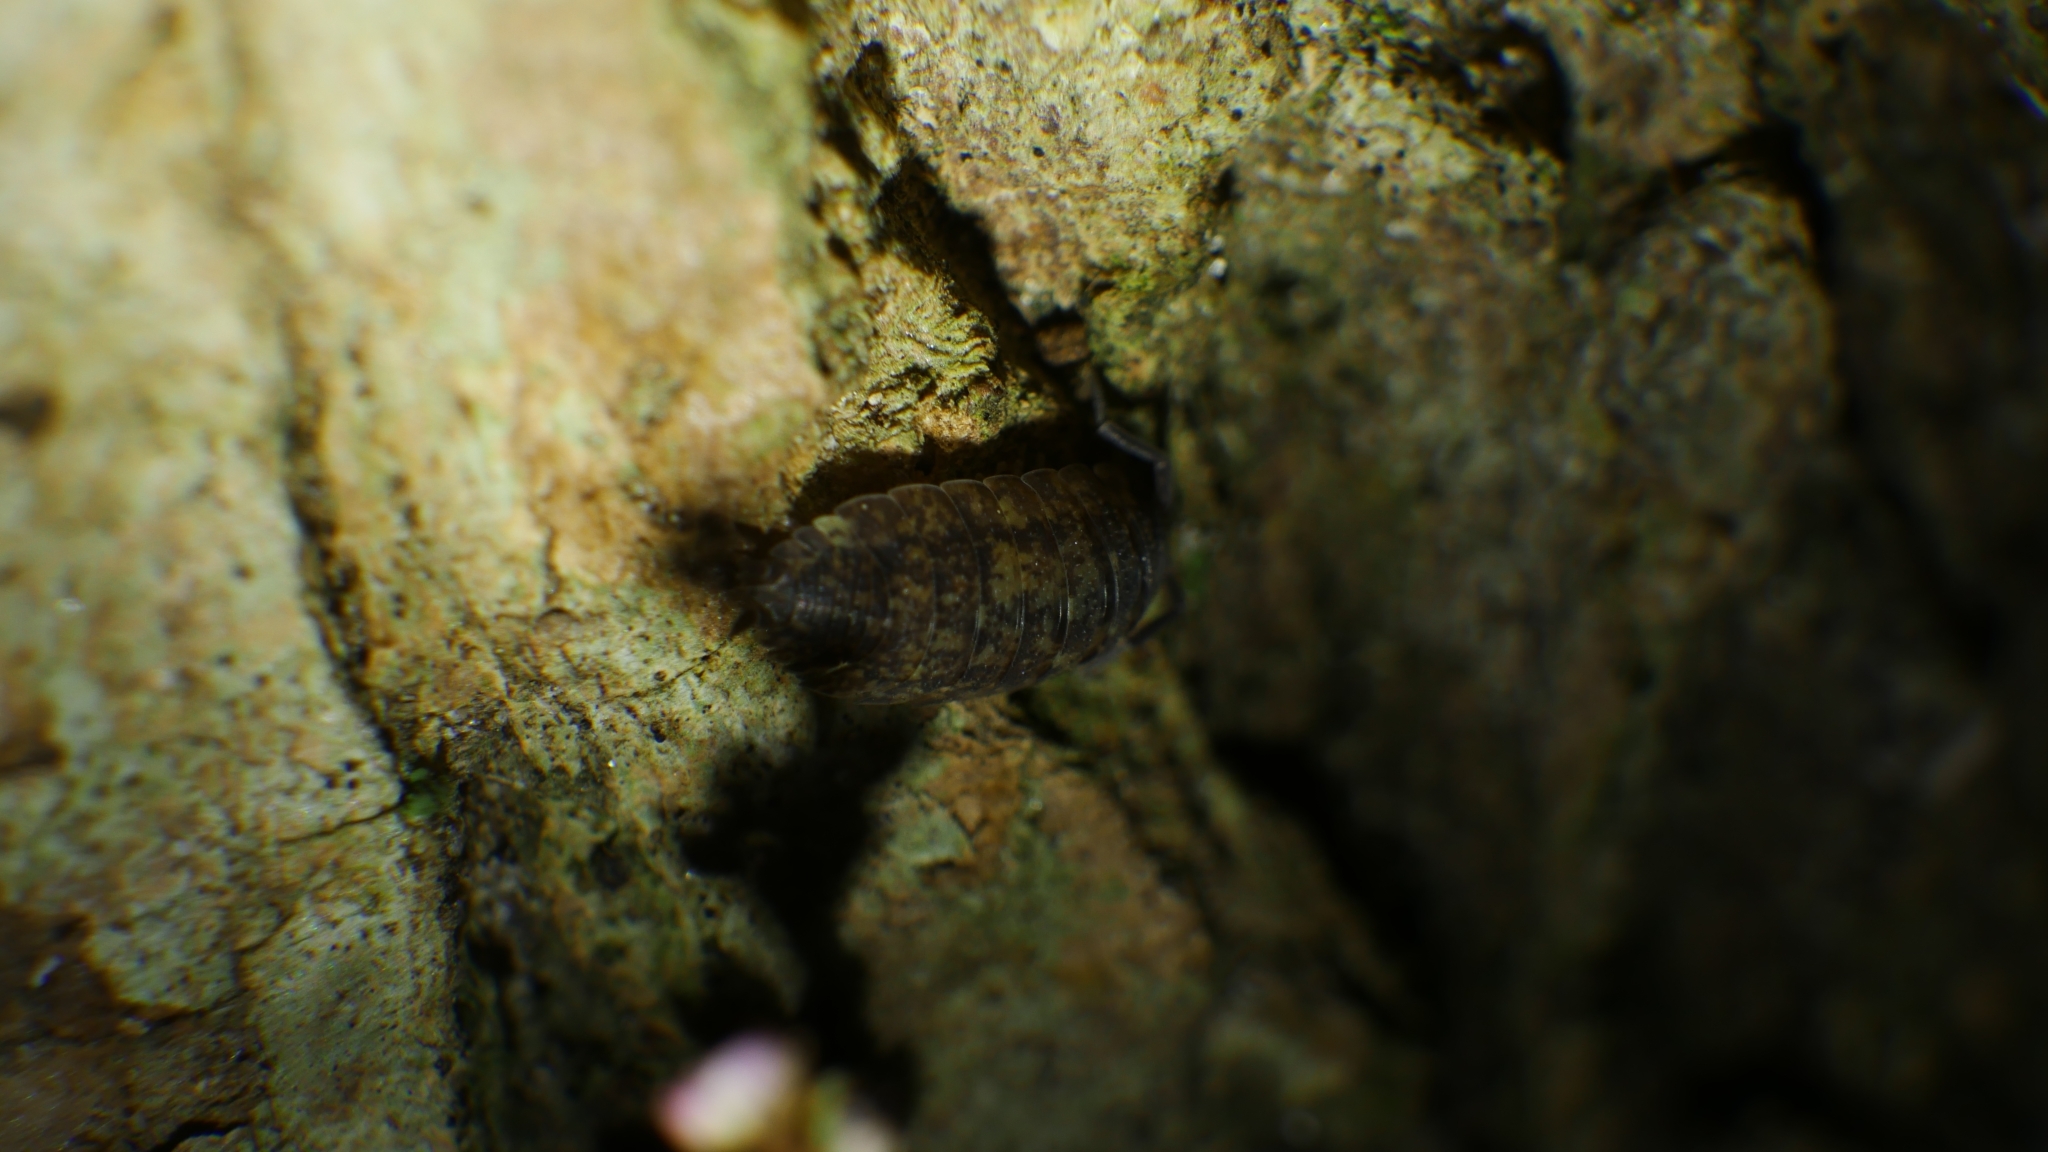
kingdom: Animalia
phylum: Arthropoda
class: Malacostraca
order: Isopoda
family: Porcellionidae
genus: Porcellio
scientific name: Porcellio scaber
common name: Common rough woodlouse
